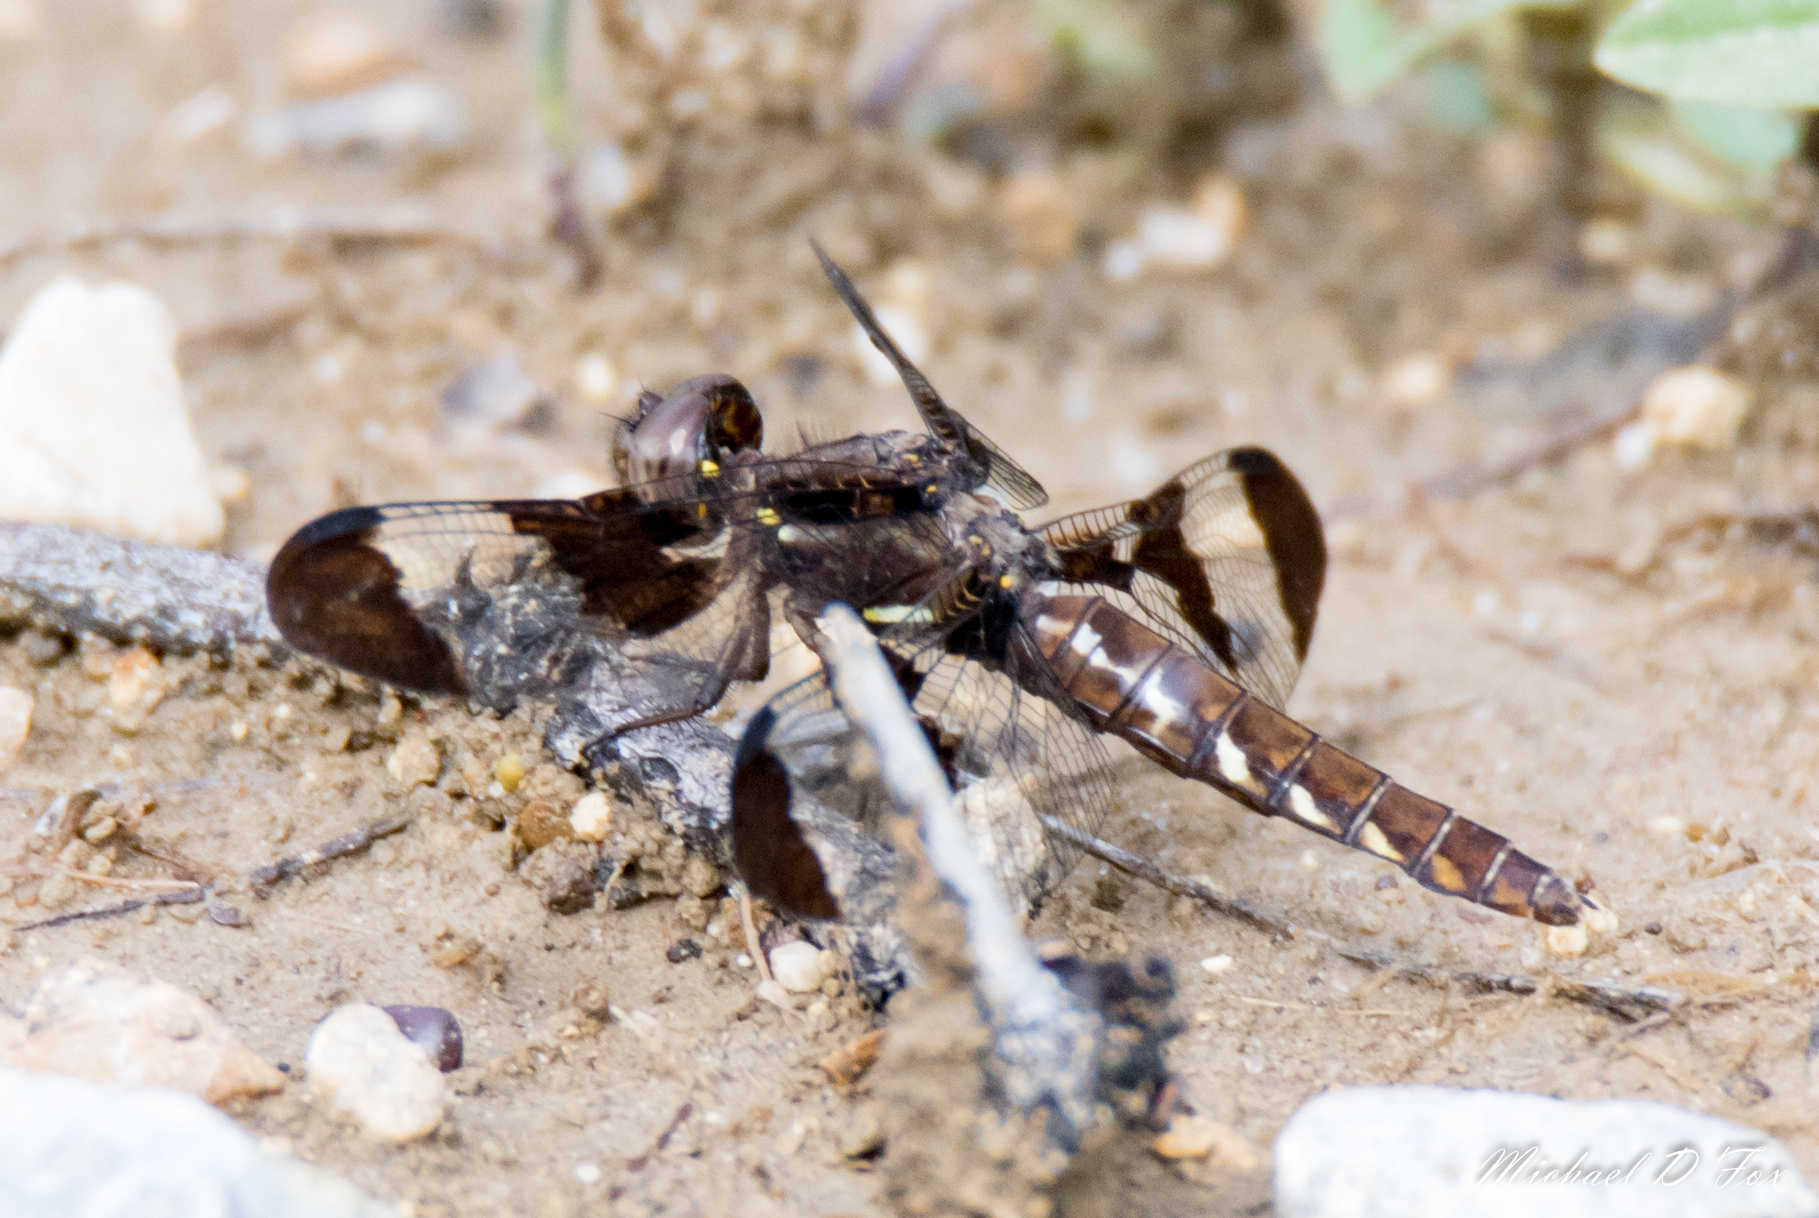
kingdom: Animalia
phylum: Arthropoda
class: Insecta
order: Odonata
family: Libellulidae
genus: Plathemis
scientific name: Plathemis lydia
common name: Common whitetail
